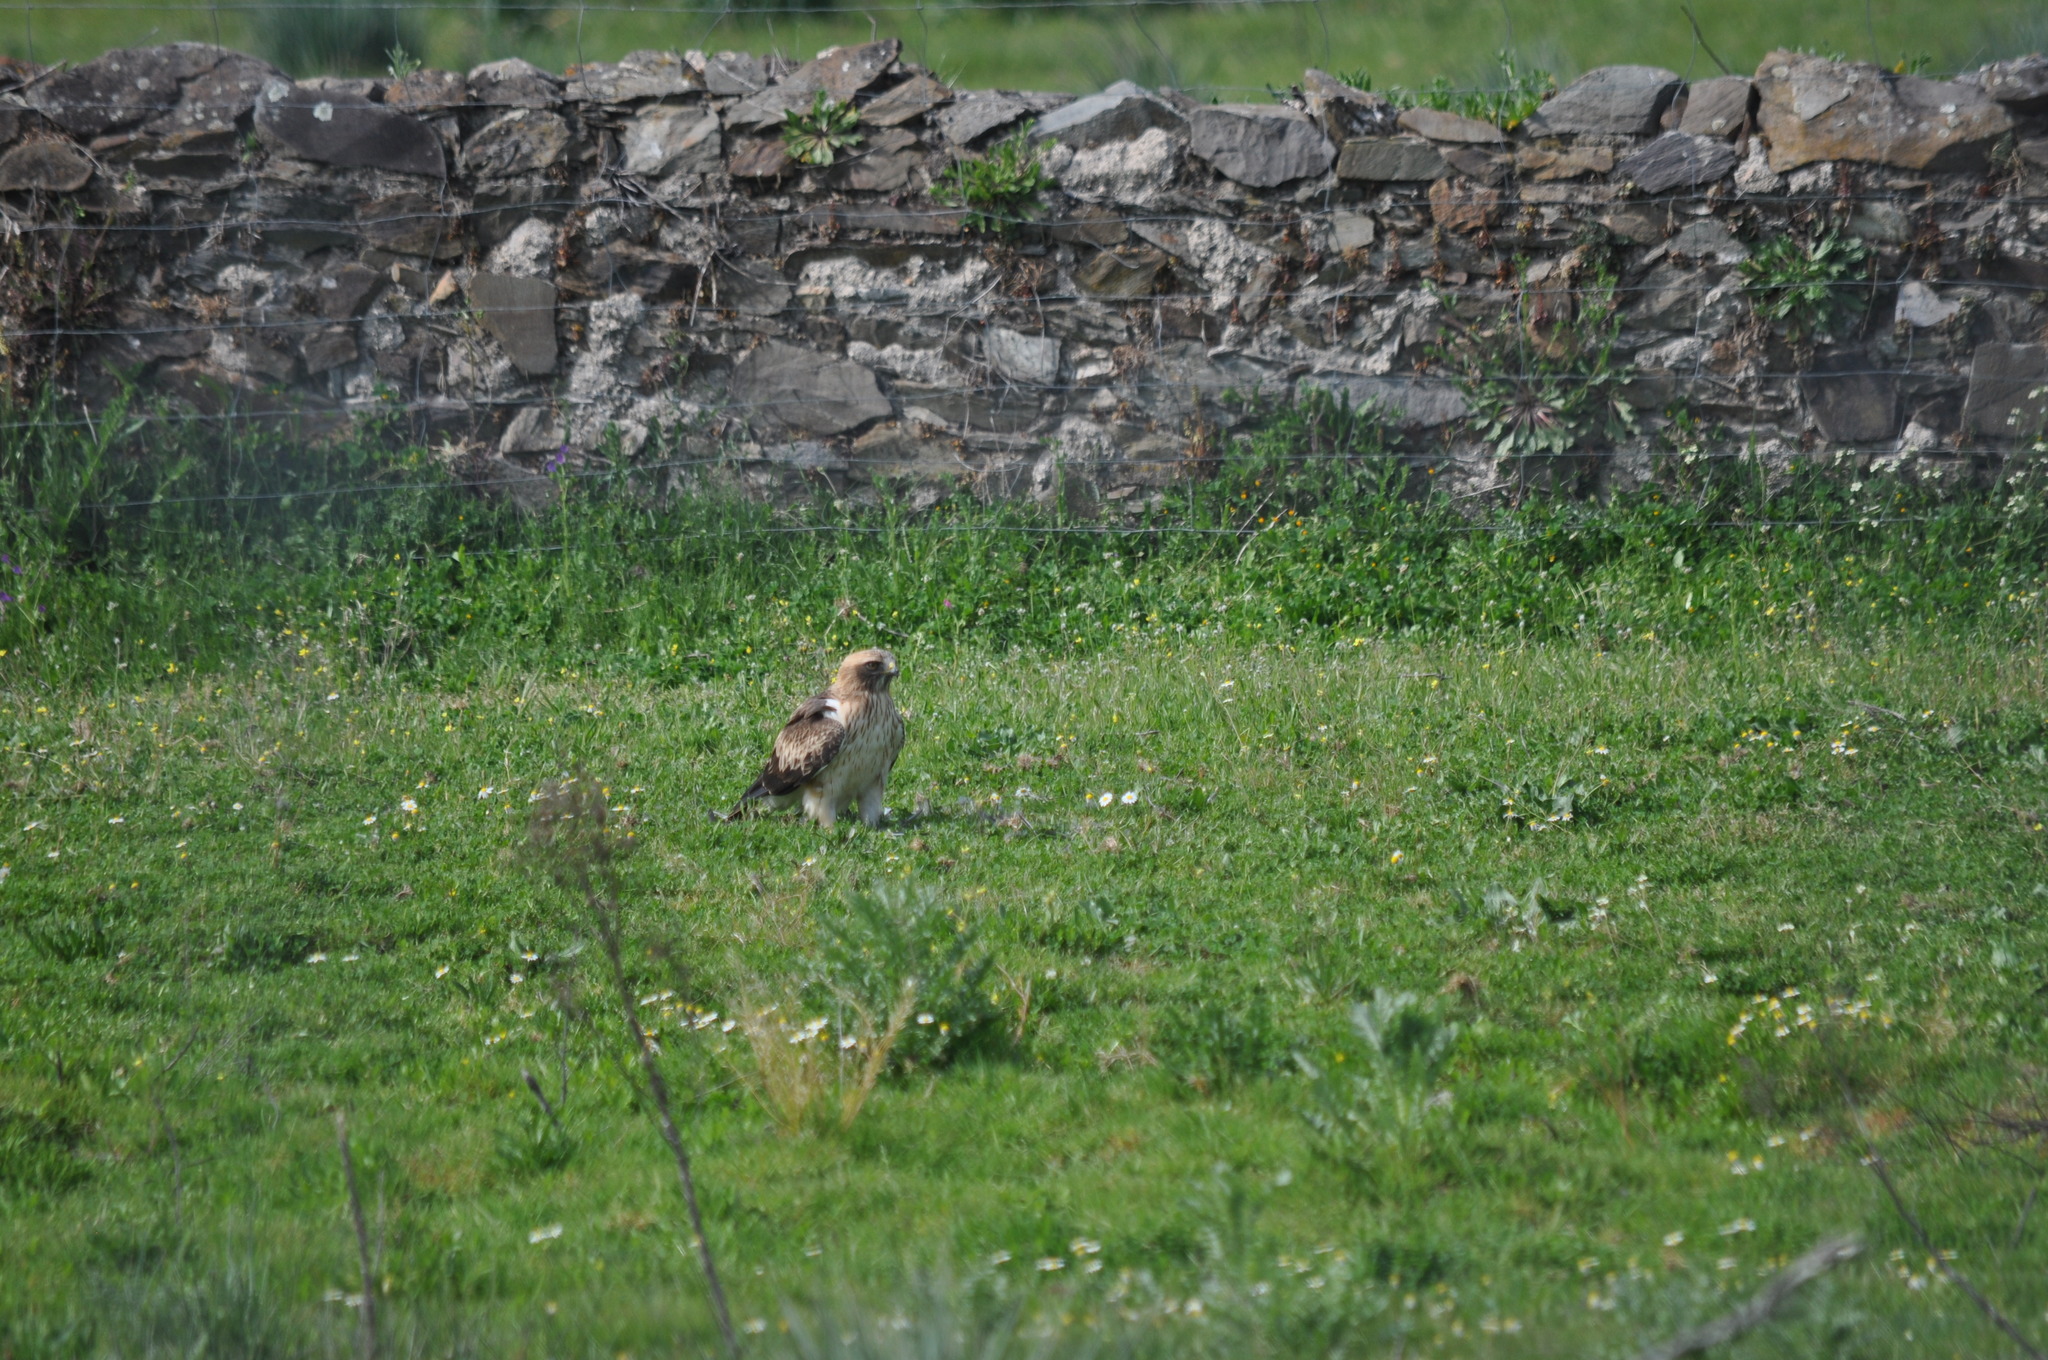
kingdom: Animalia
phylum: Chordata
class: Aves
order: Accipitriformes
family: Accipitridae
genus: Hieraaetus
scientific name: Hieraaetus pennatus
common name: Booted eagle
